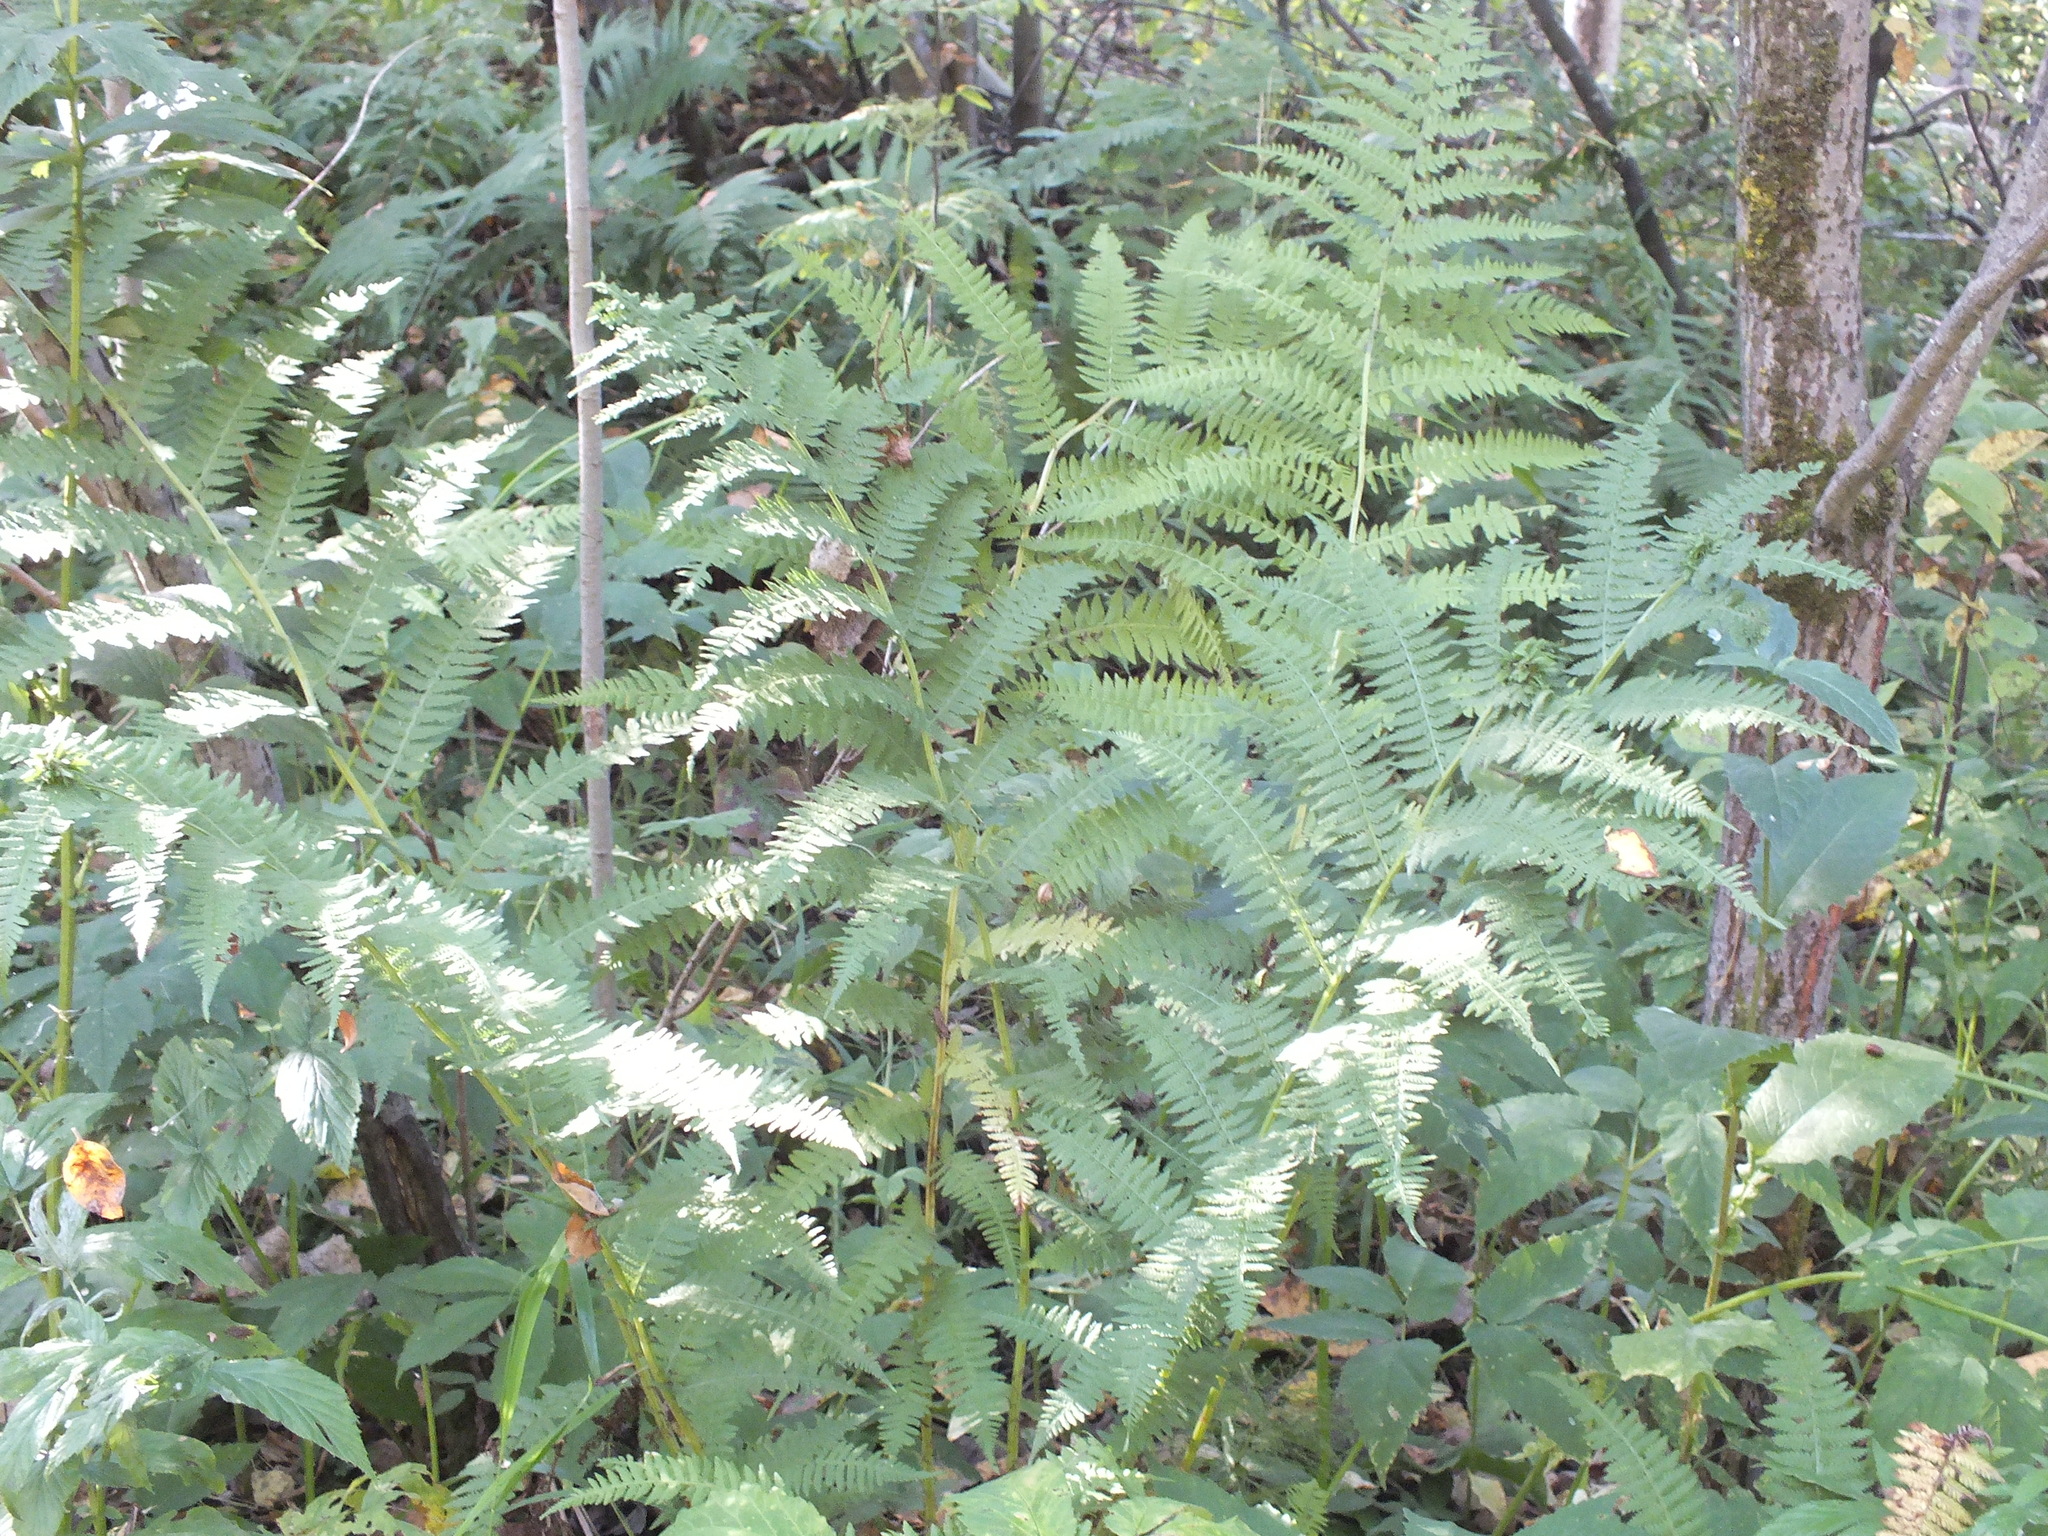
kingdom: Plantae
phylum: Tracheophyta
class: Polypodiopsida
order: Polypodiales
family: Athyriaceae
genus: Athyrium
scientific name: Athyrium filix-femina
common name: Lady fern
